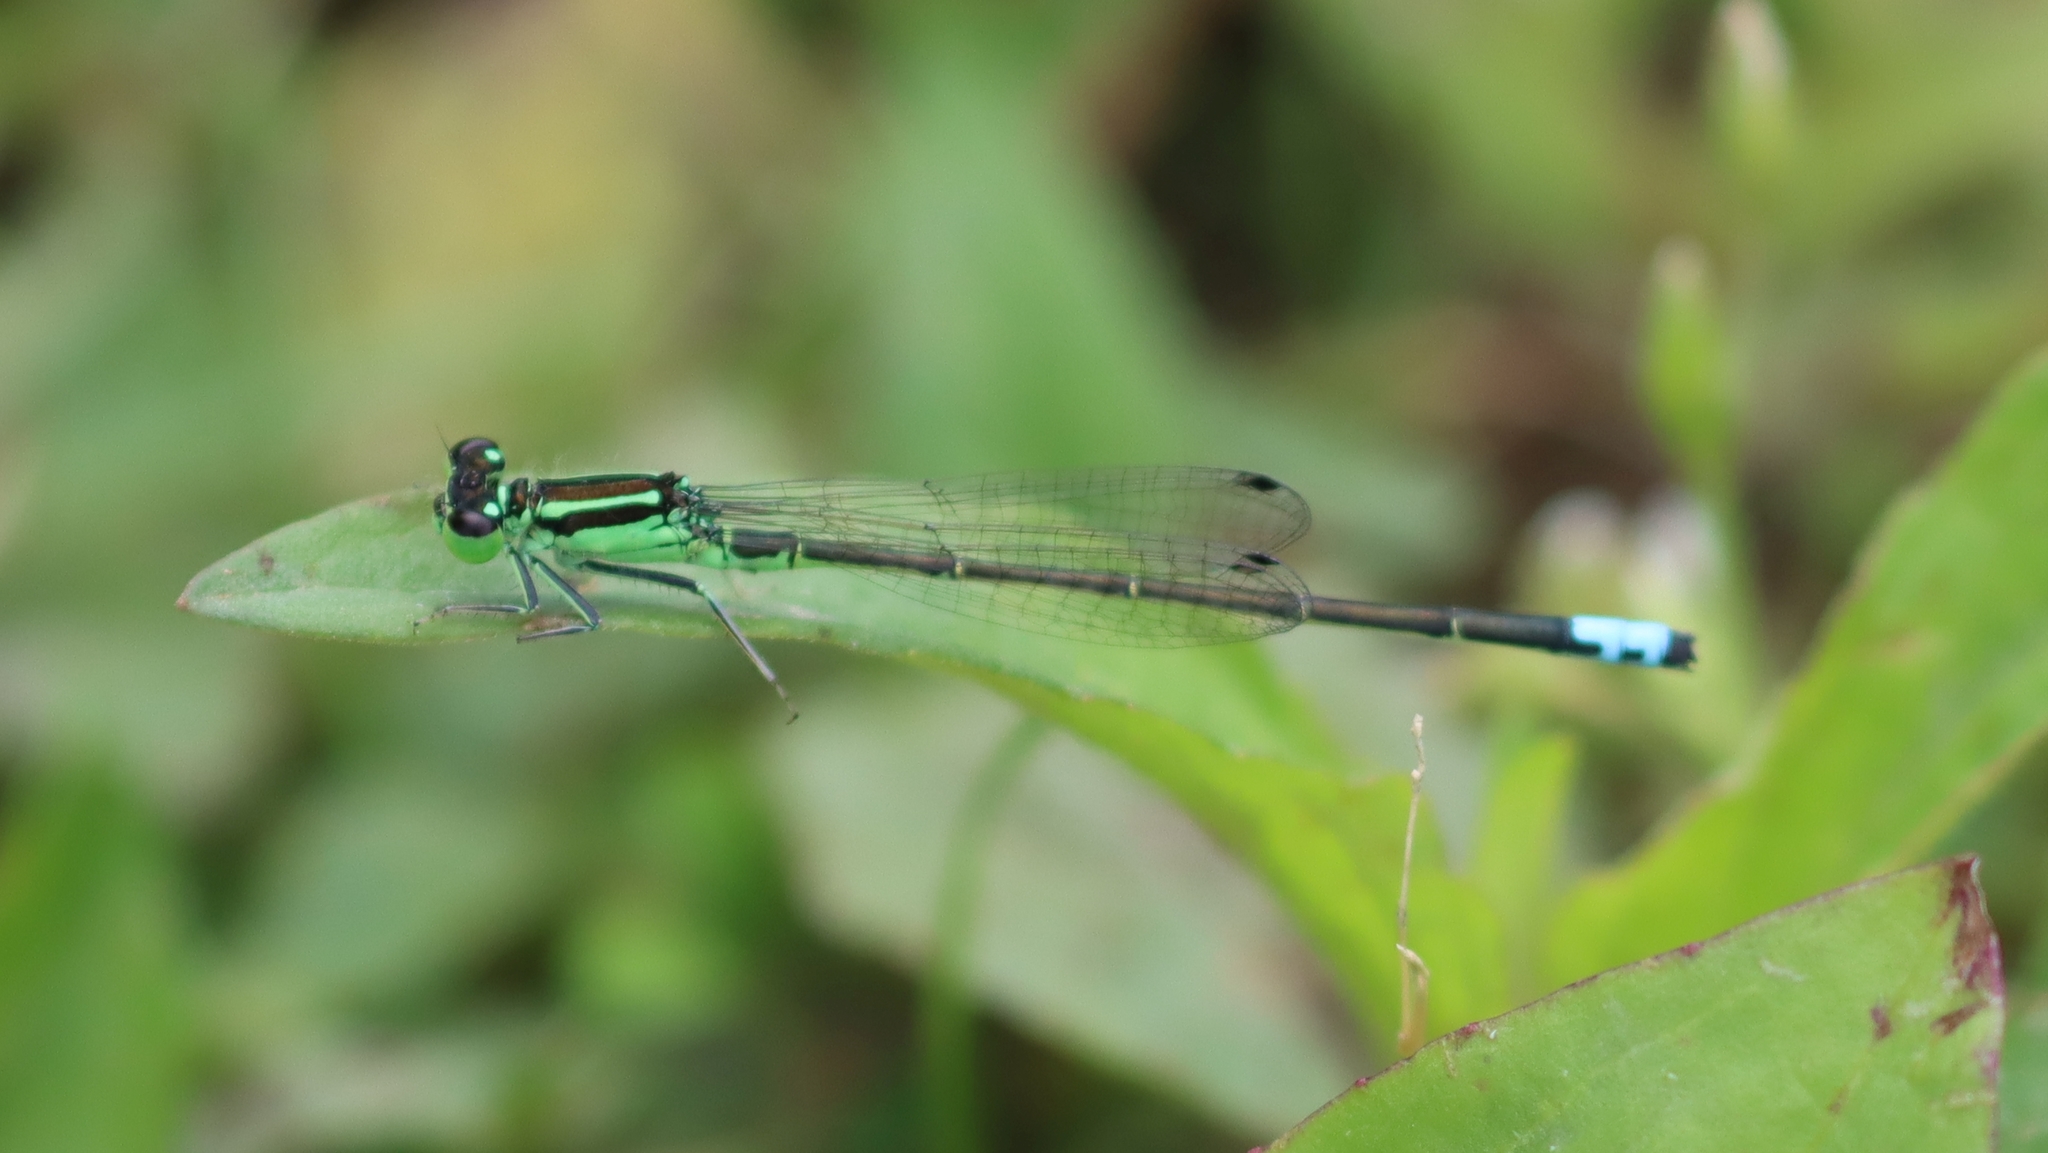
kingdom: Animalia
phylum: Arthropoda
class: Insecta
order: Odonata
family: Coenagrionidae
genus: Ischnura
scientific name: Ischnura verticalis
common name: Eastern forktail
